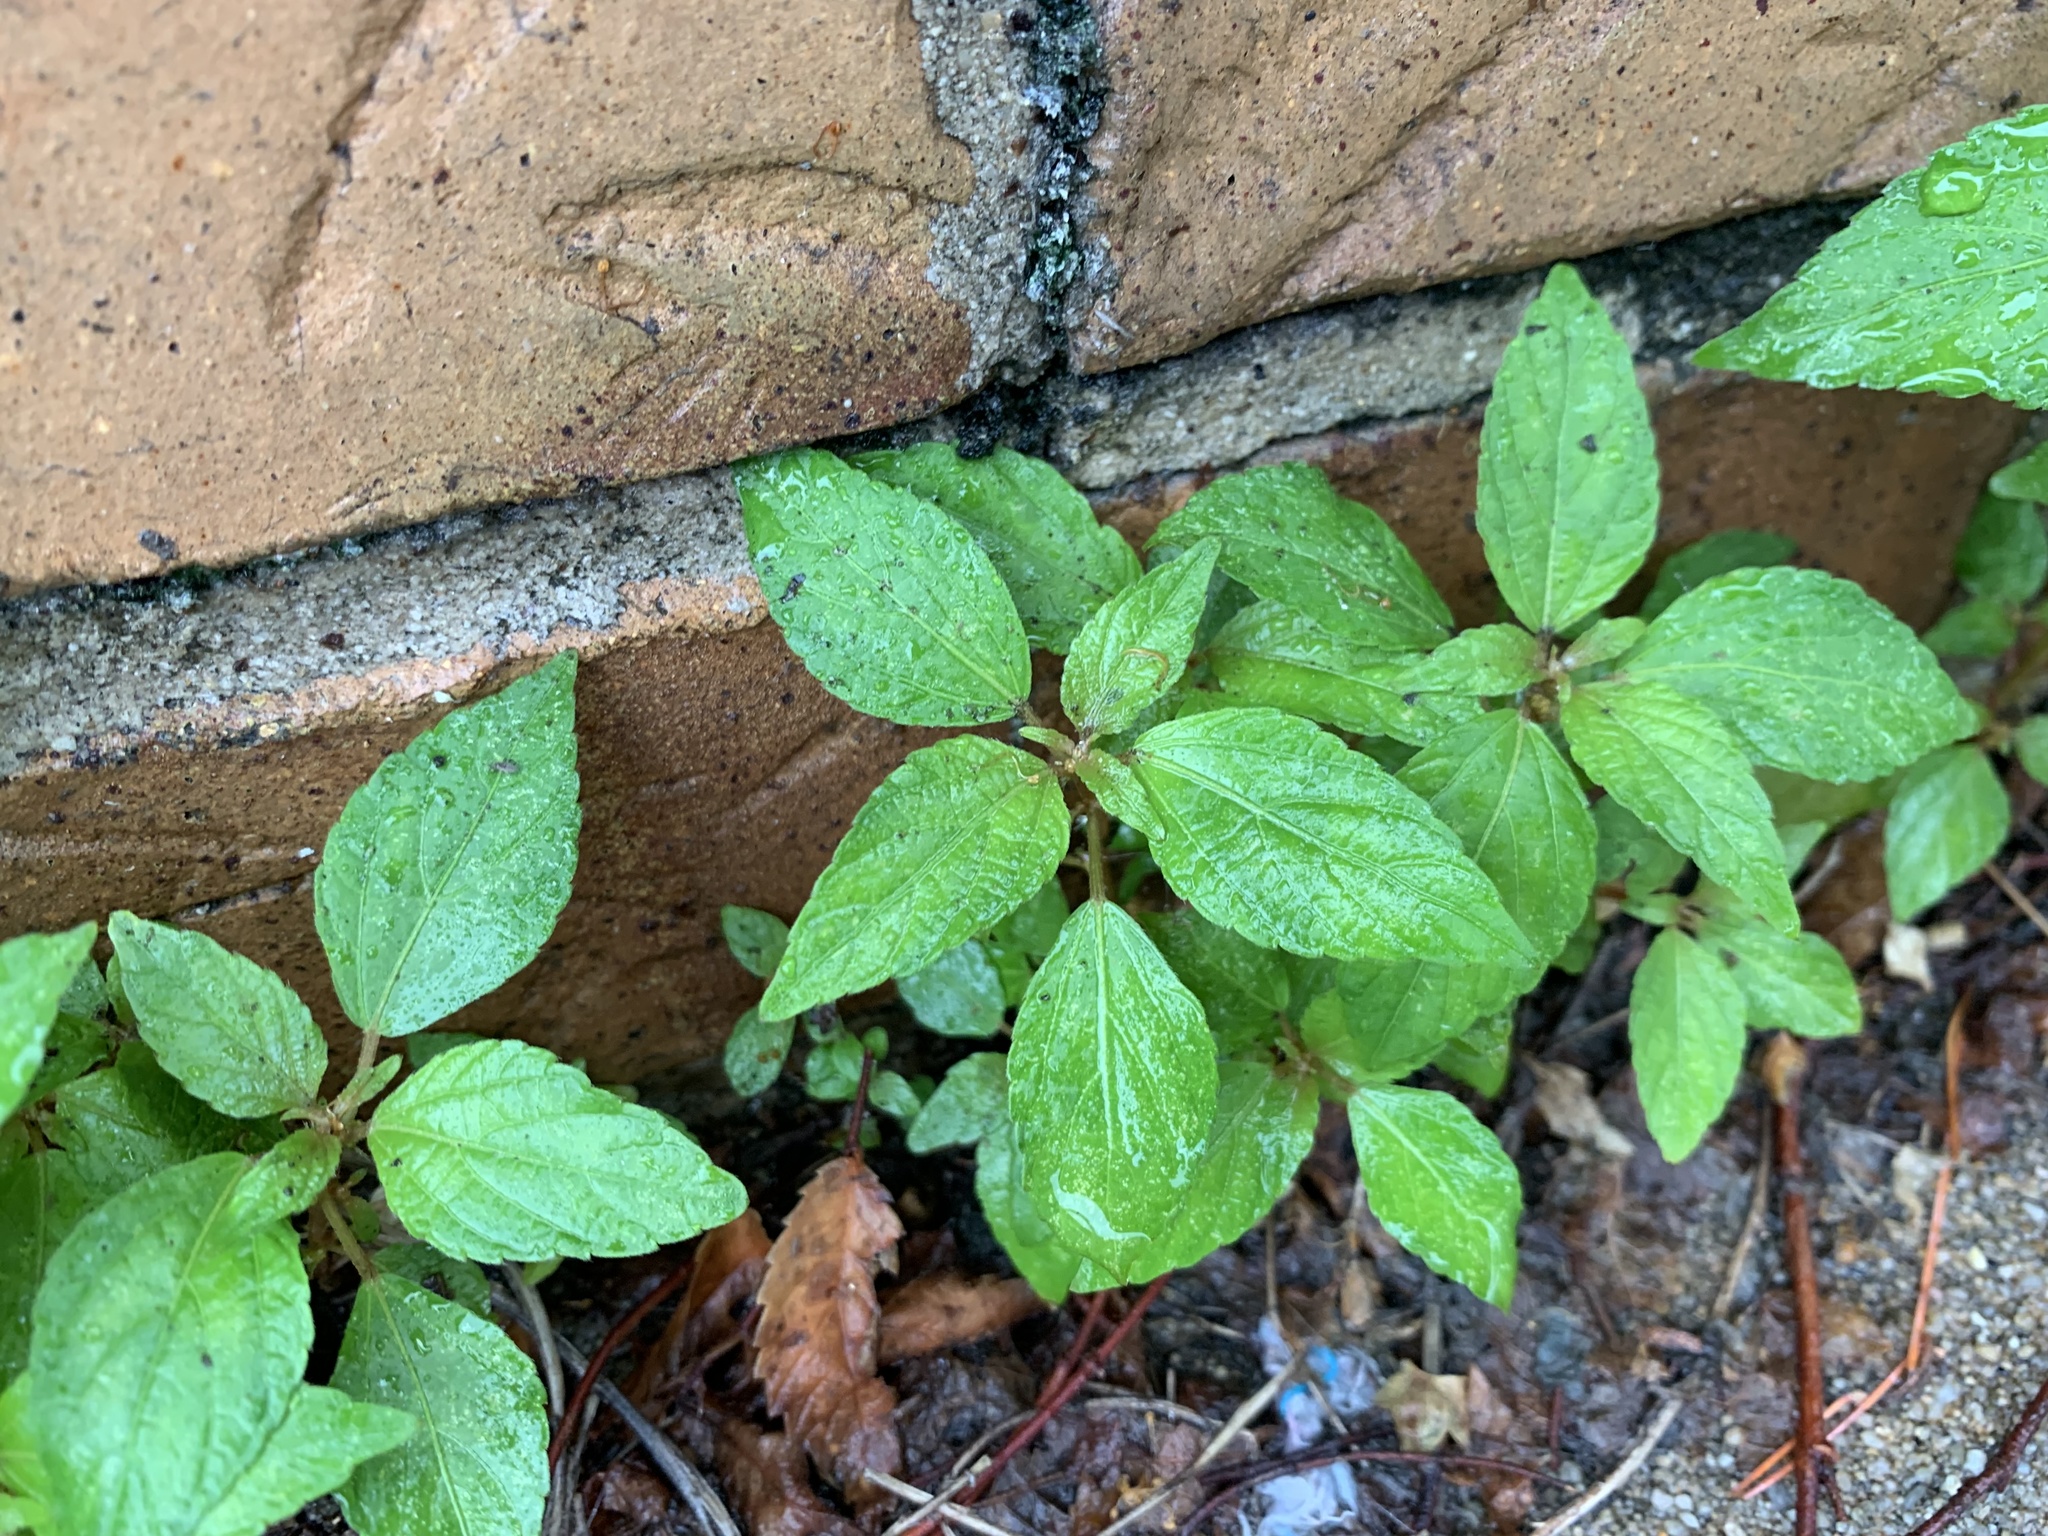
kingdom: Plantae
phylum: Tracheophyta
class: Magnoliopsida
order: Malpighiales
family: Euphorbiaceae
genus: Acalypha
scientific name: Acalypha rhomboidea
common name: Rhombic copperleaf
